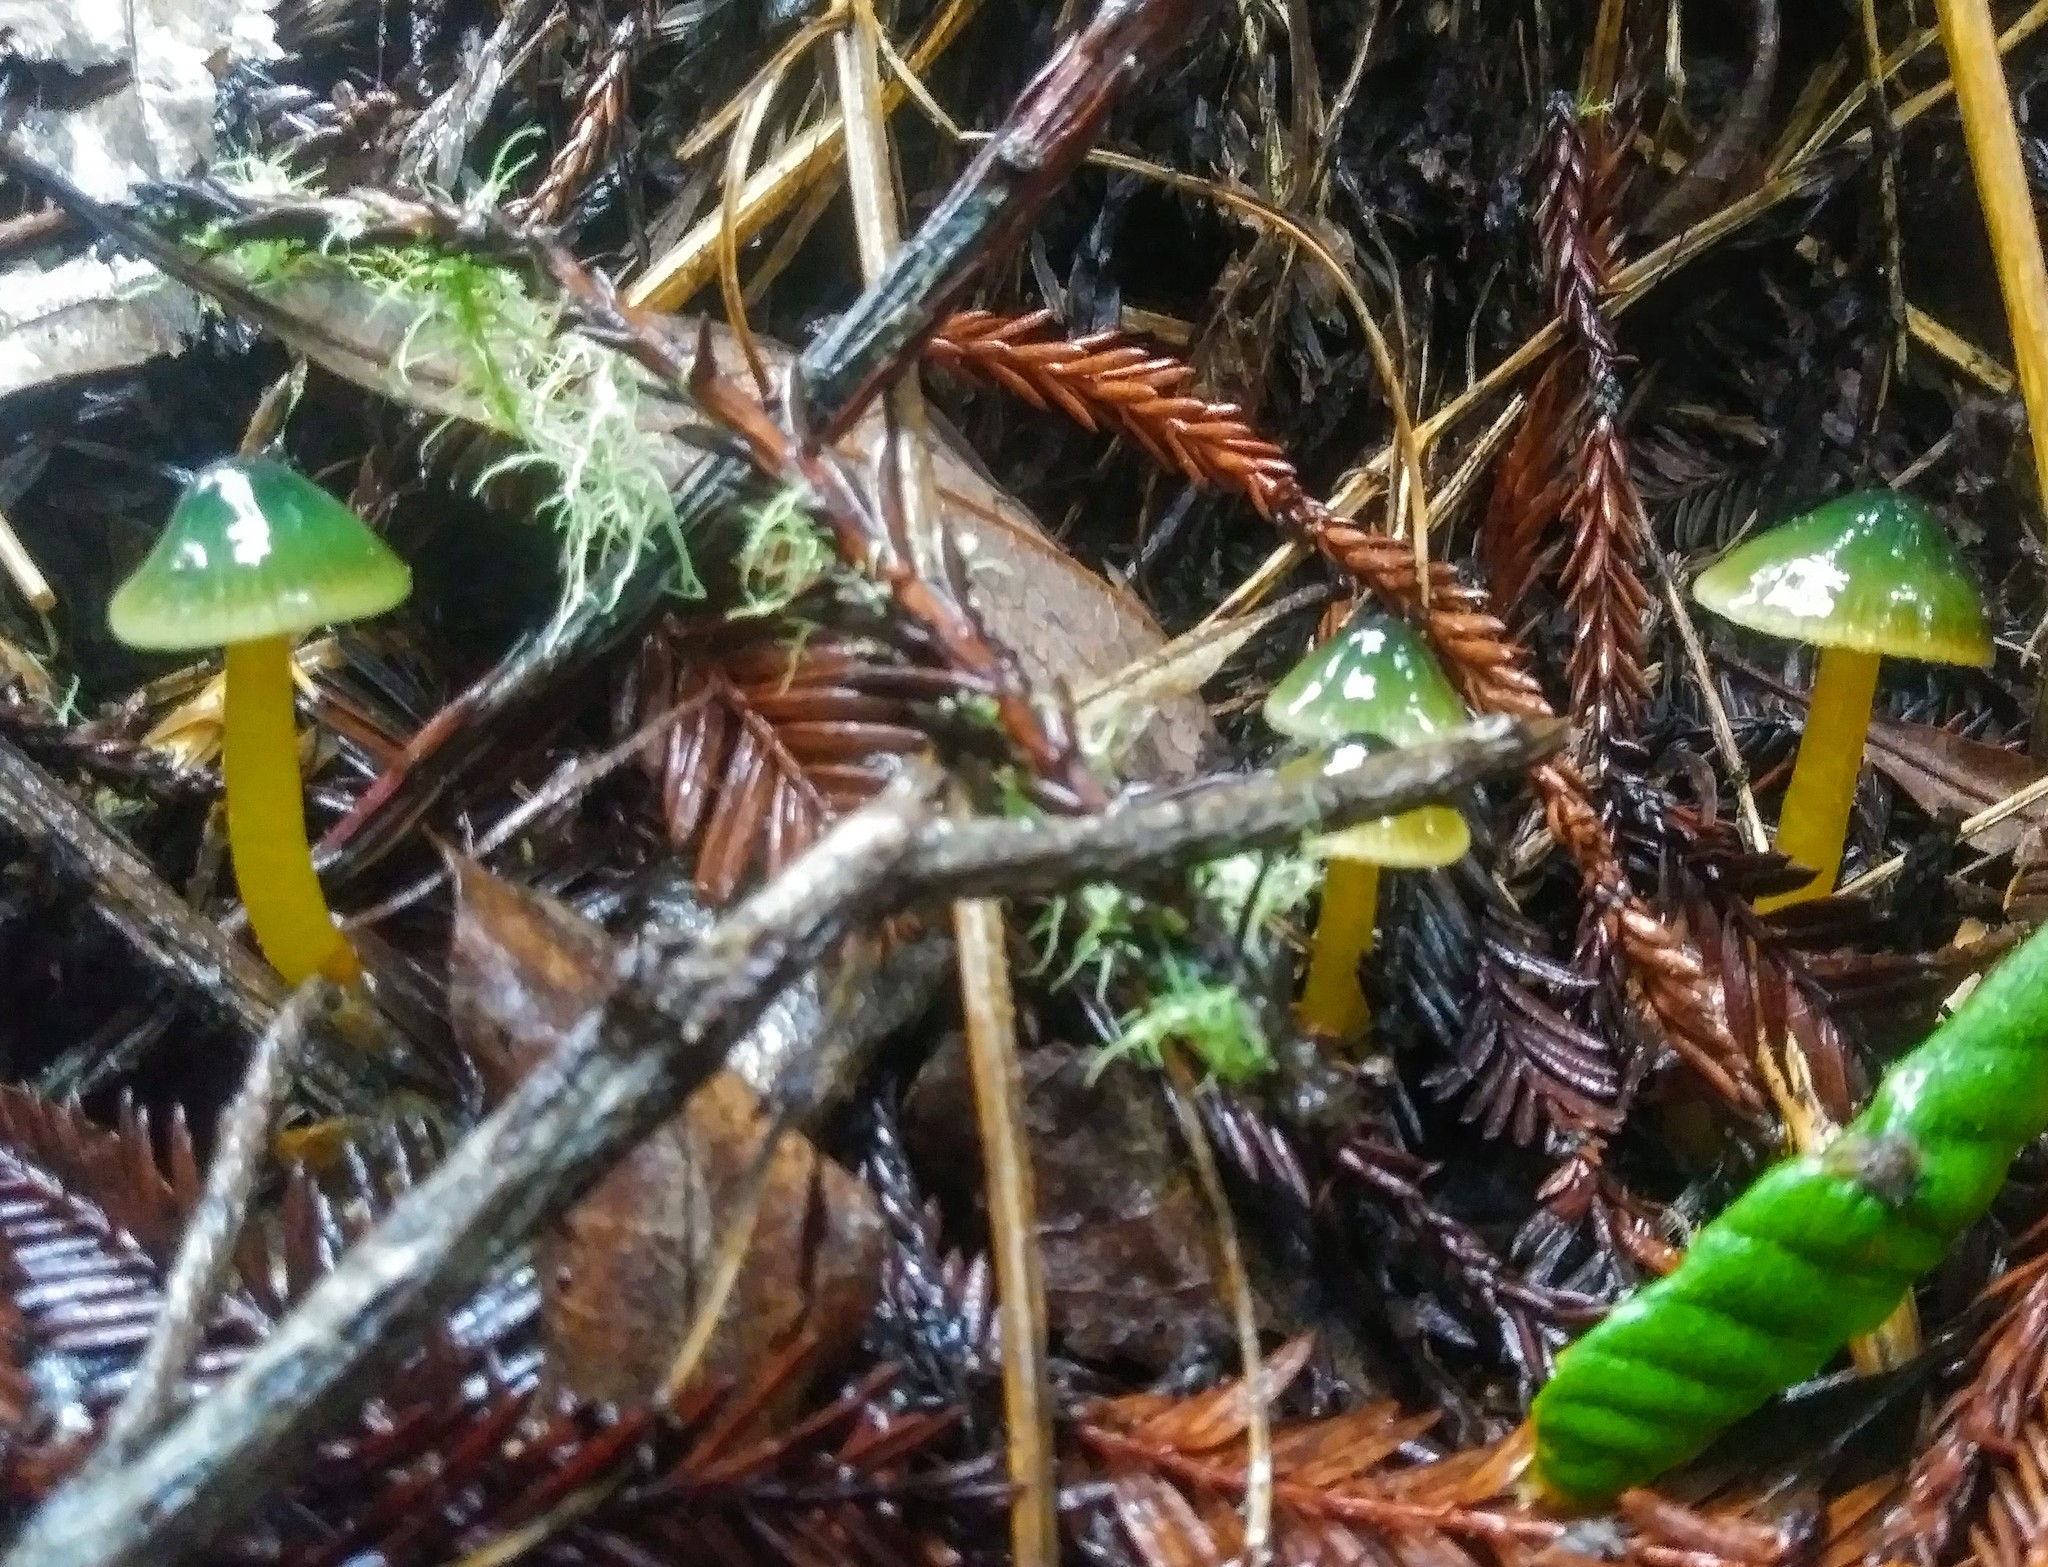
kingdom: Fungi
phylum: Basidiomycota
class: Agaricomycetes
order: Agaricales
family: Hygrophoraceae
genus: Gliophorus
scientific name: Gliophorus psittacinus
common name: Parrot wax-cap
